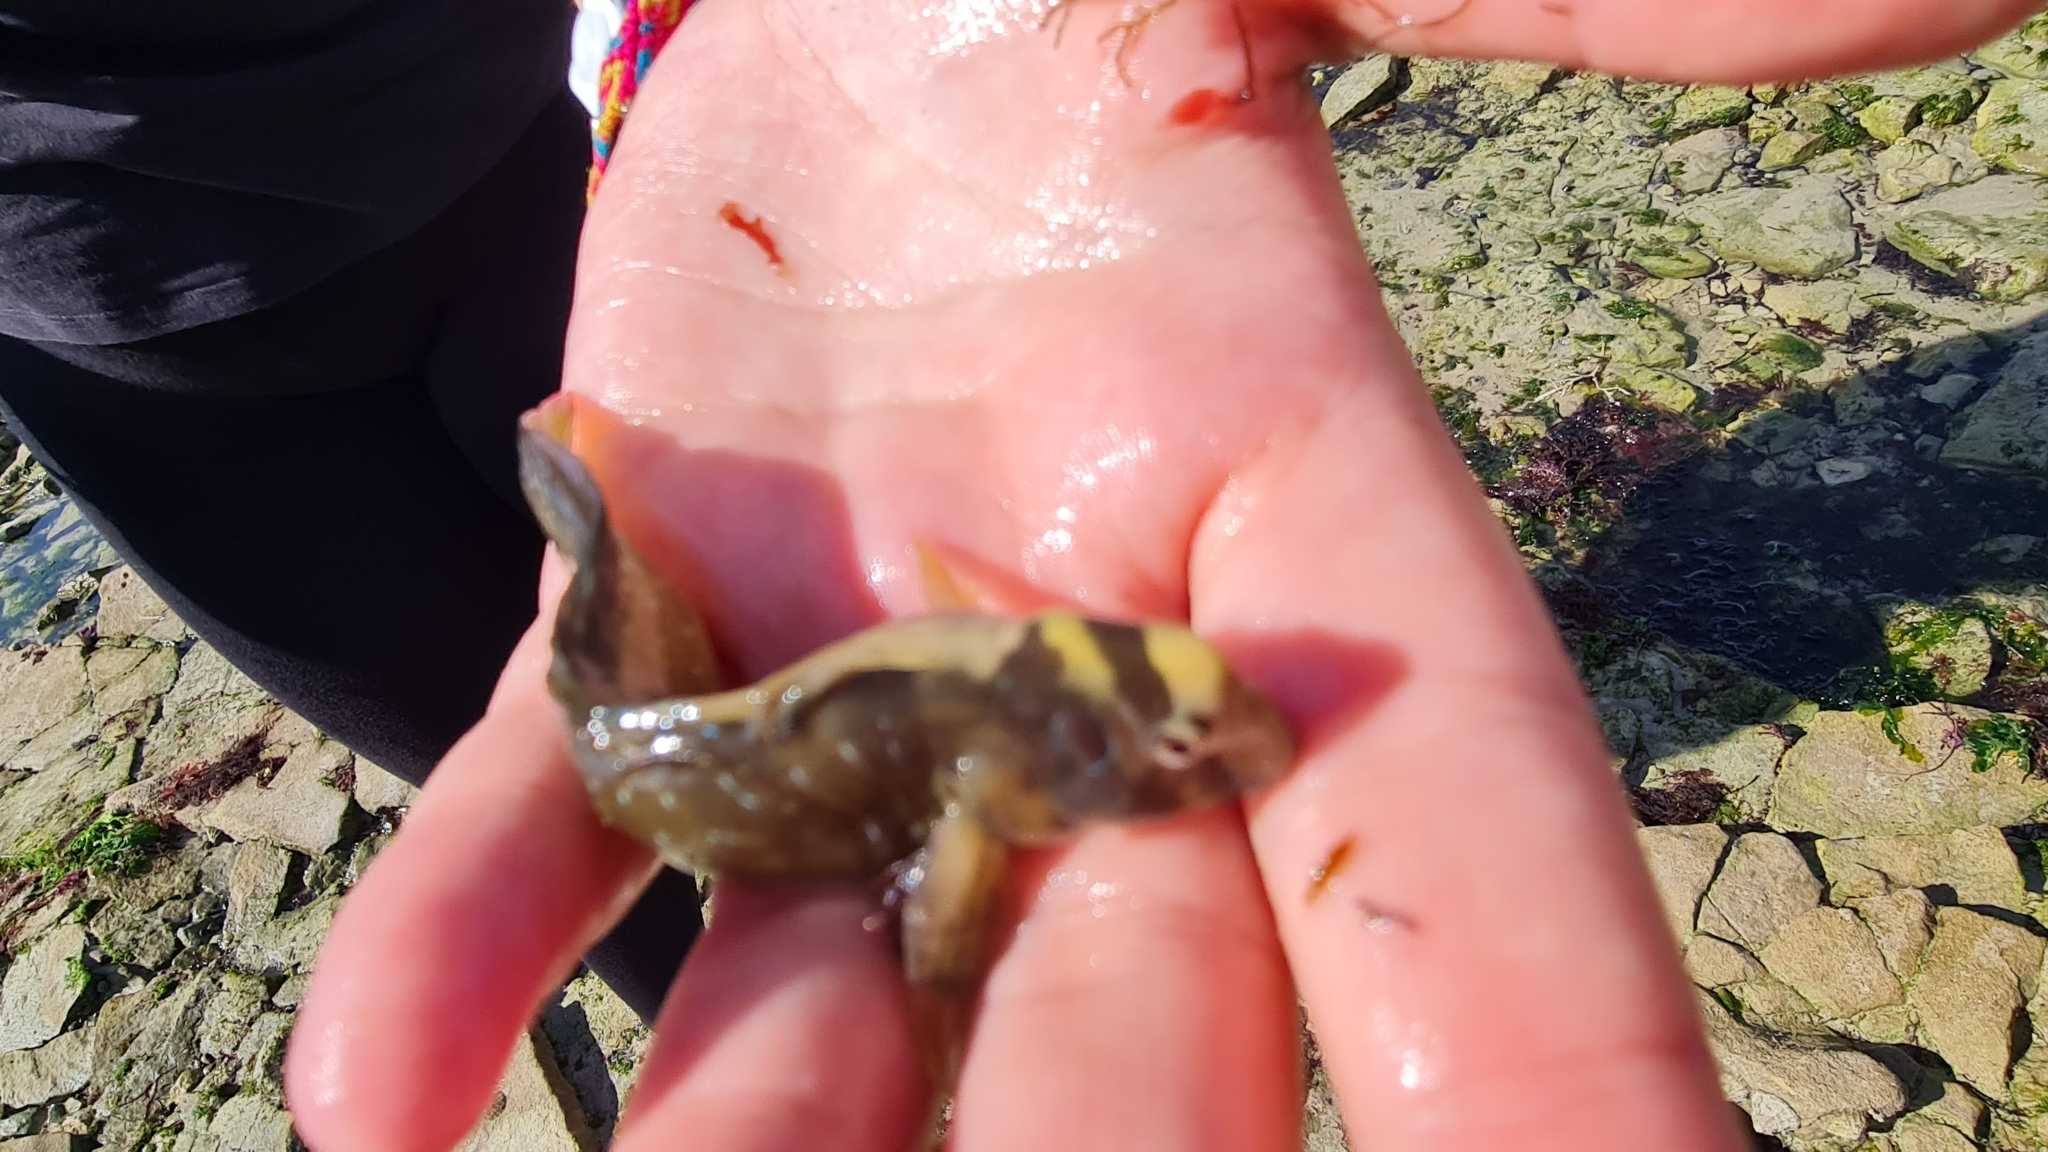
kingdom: Animalia
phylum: Chordata
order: Perciformes
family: Blenniidae
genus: Salaria
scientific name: Salaria pavo
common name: Peacock blenny
